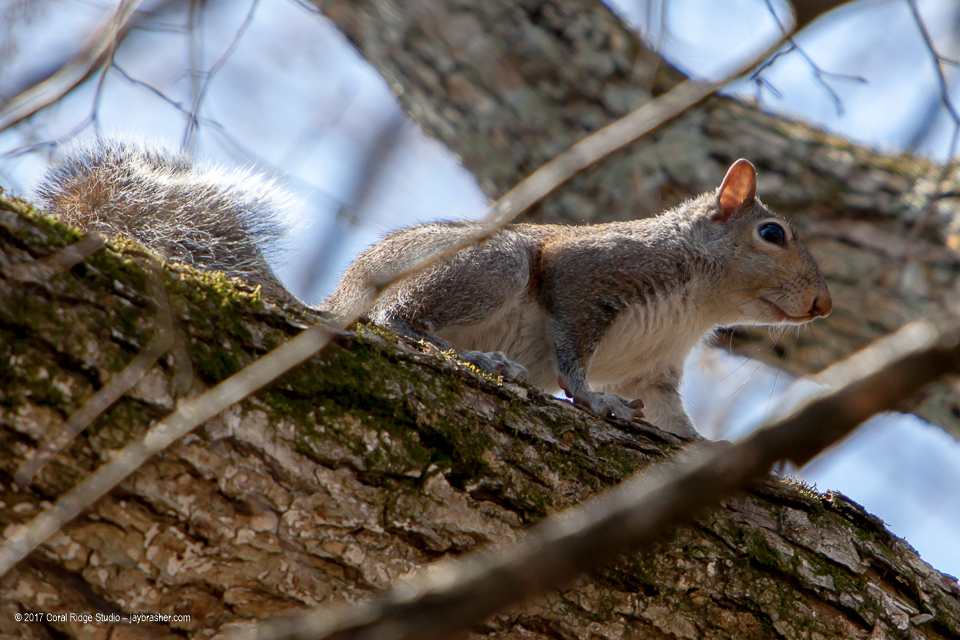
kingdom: Animalia
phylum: Chordata
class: Mammalia
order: Rodentia
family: Sciuridae
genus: Sciurus
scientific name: Sciurus carolinensis
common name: Eastern gray squirrel
